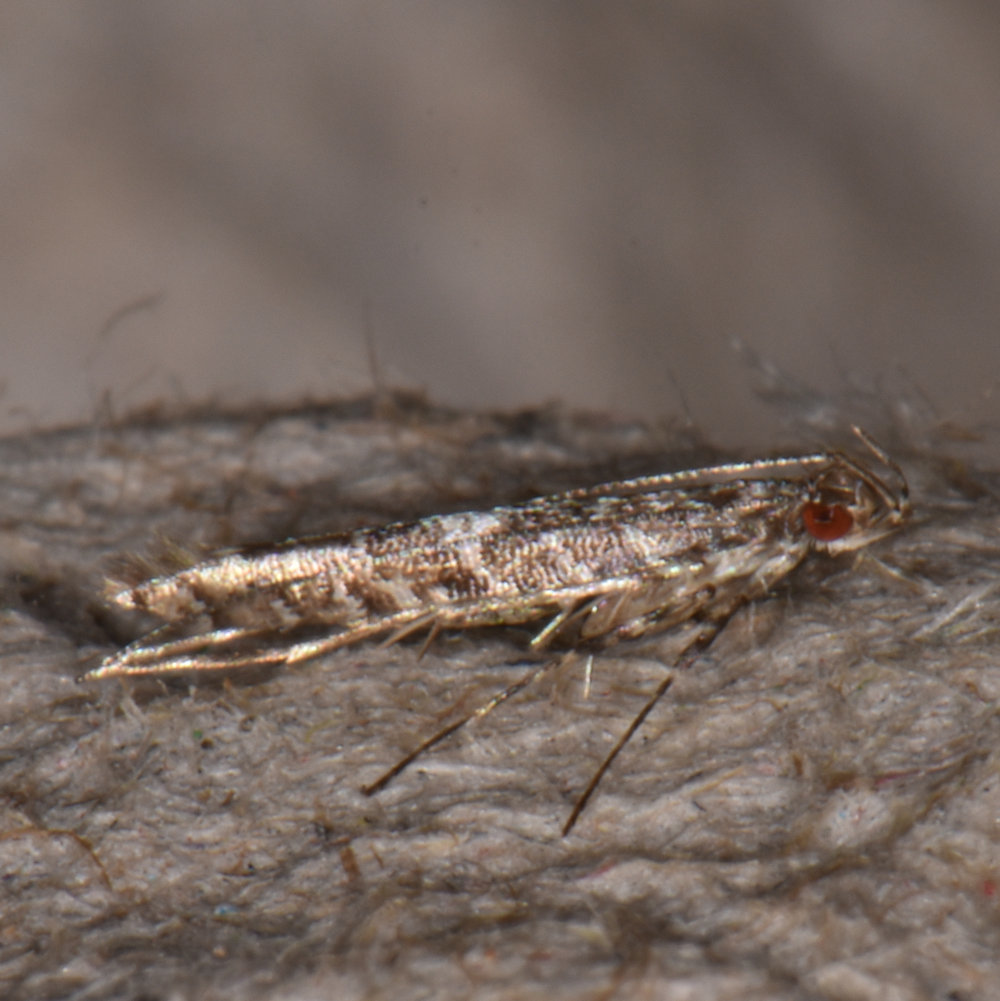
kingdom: Animalia
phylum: Arthropoda
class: Insecta
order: Lepidoptera
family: Gracillariidae
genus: Cryptolectica
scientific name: Cryptolectica
